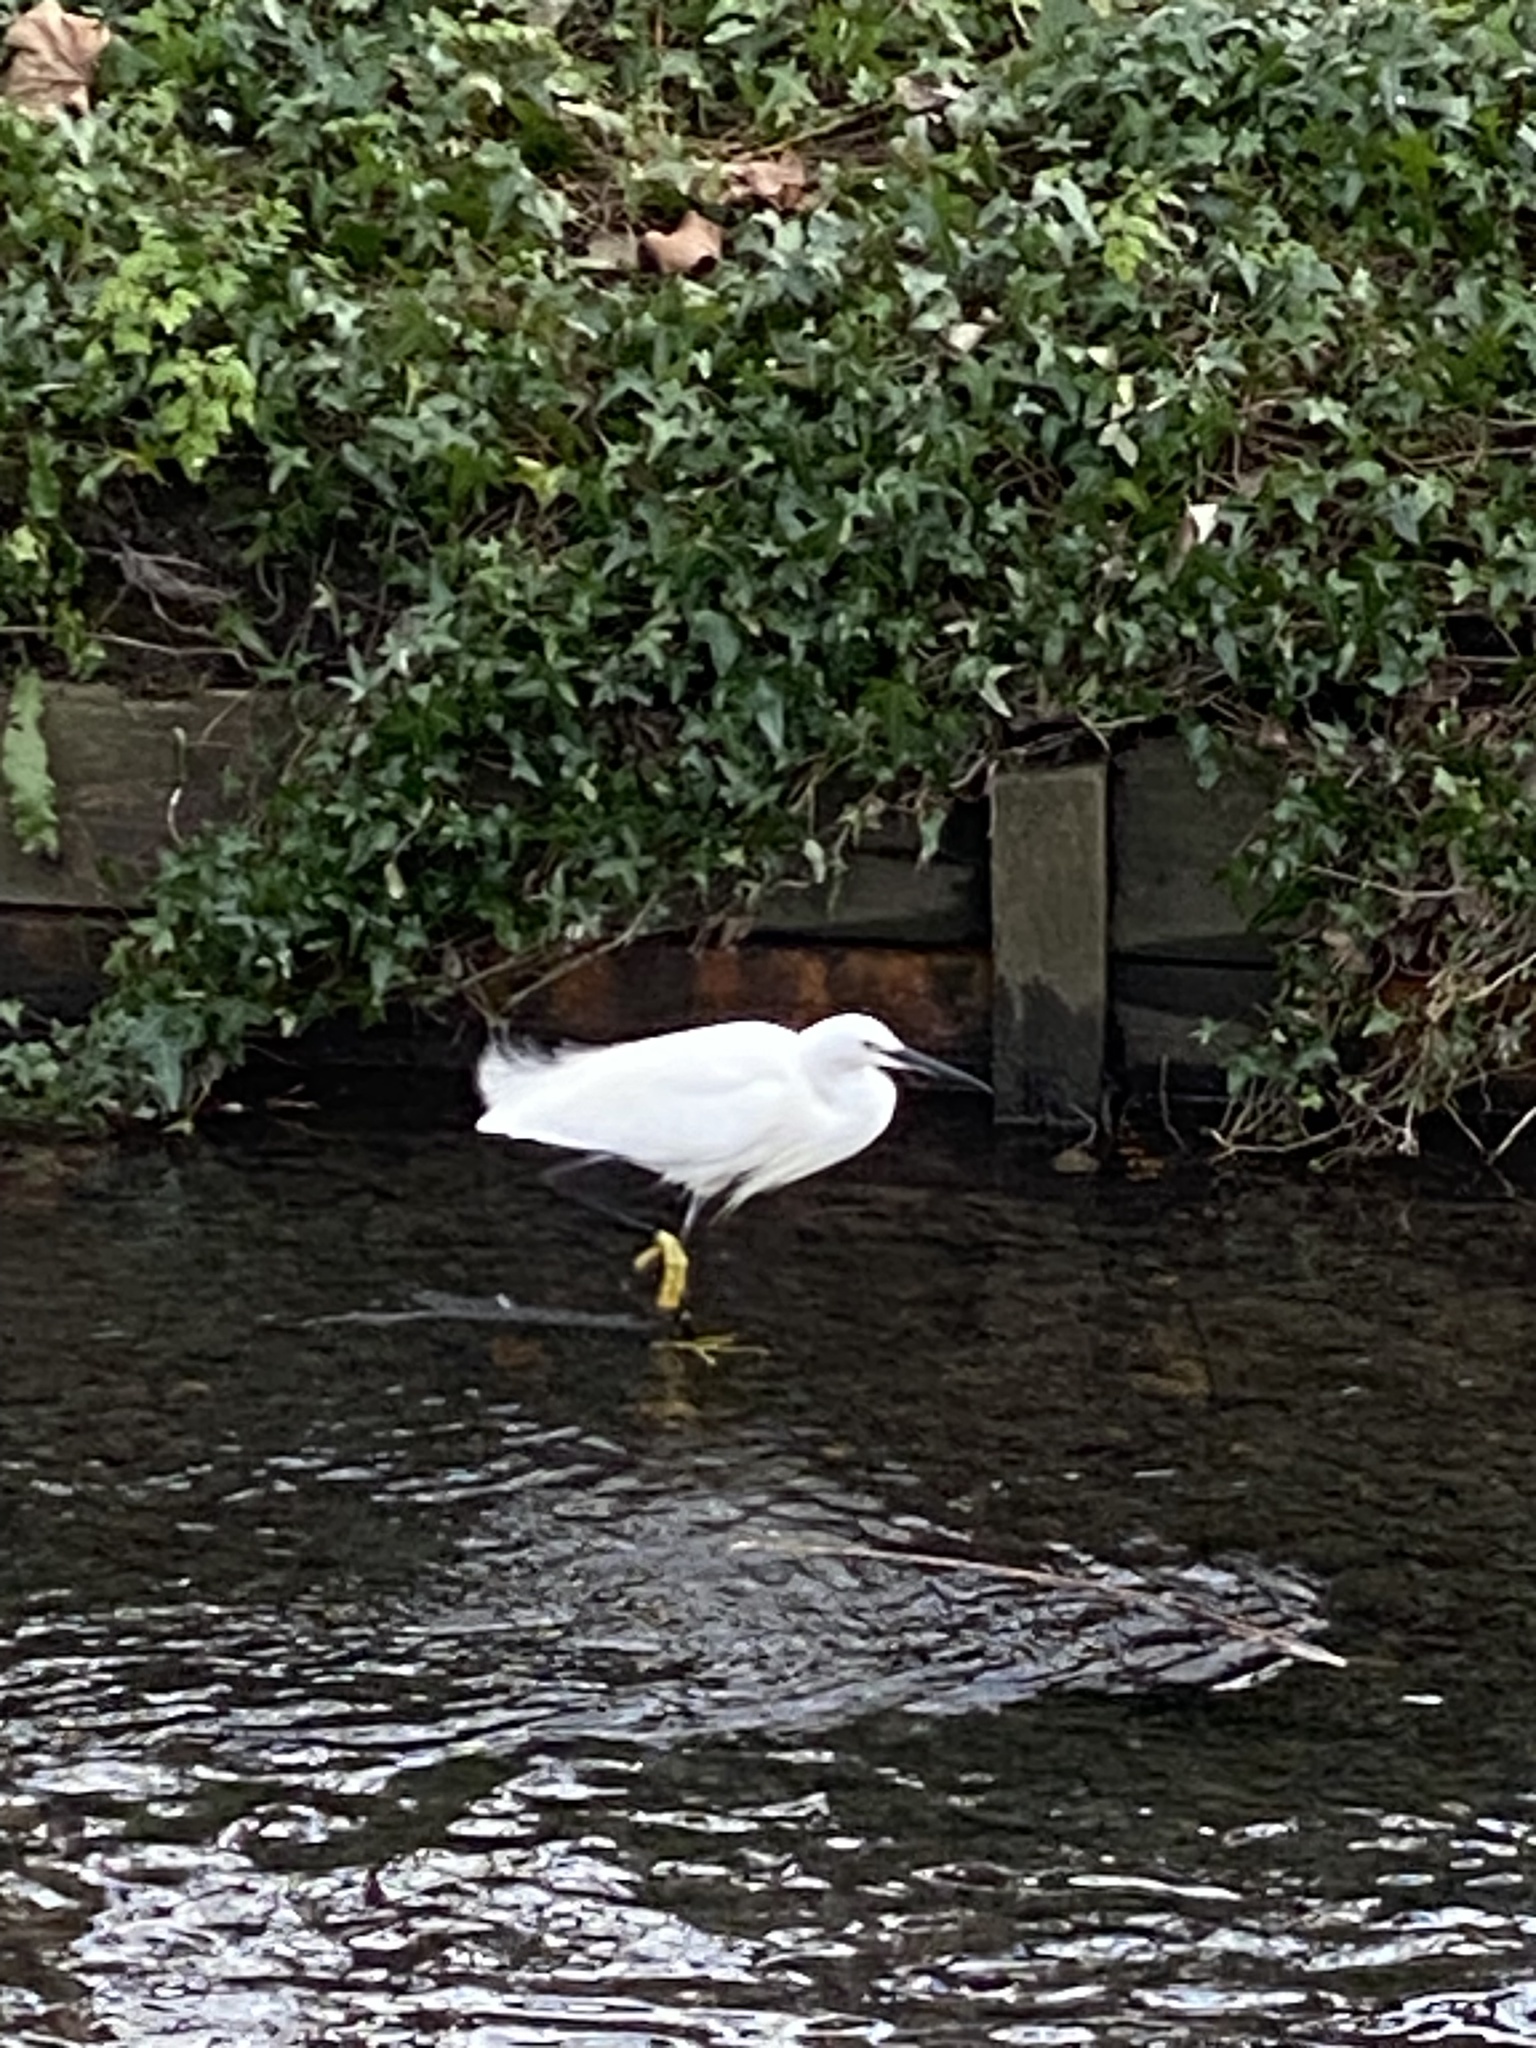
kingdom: Animalia
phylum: Chordata
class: Aves
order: Pelecaniformes
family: Ardeidae
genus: Egretta
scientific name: Egretta garzetta
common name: Little egret
